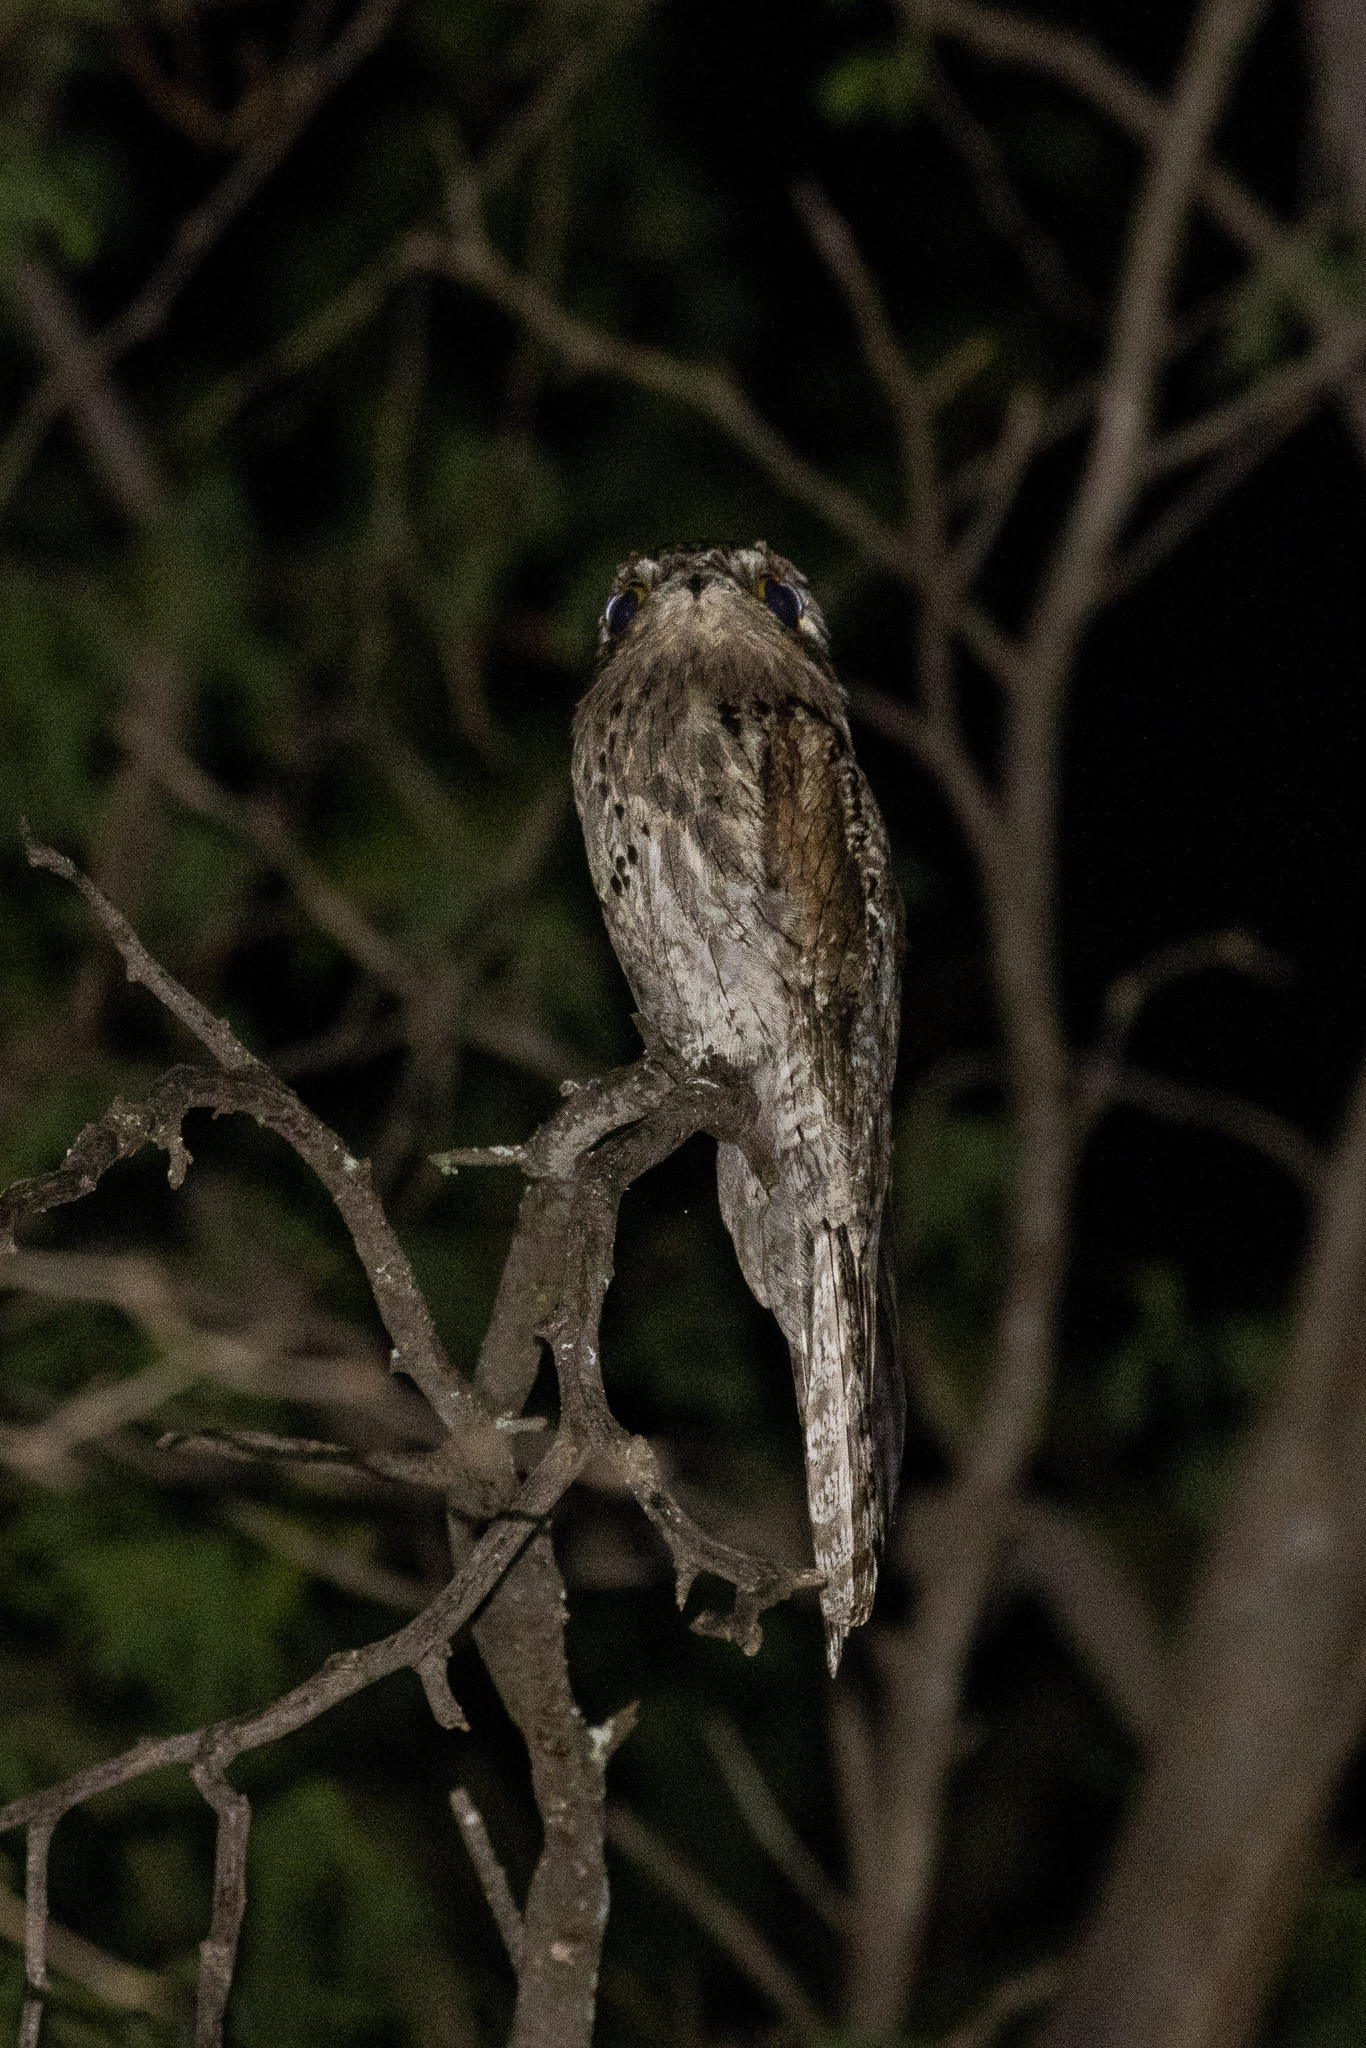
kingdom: Animalia
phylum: Chordata
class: Aves
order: Nyctibiiformes
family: Nyctibiidae
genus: Nyctibius
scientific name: Nyctibius griseus
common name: Common potoo
